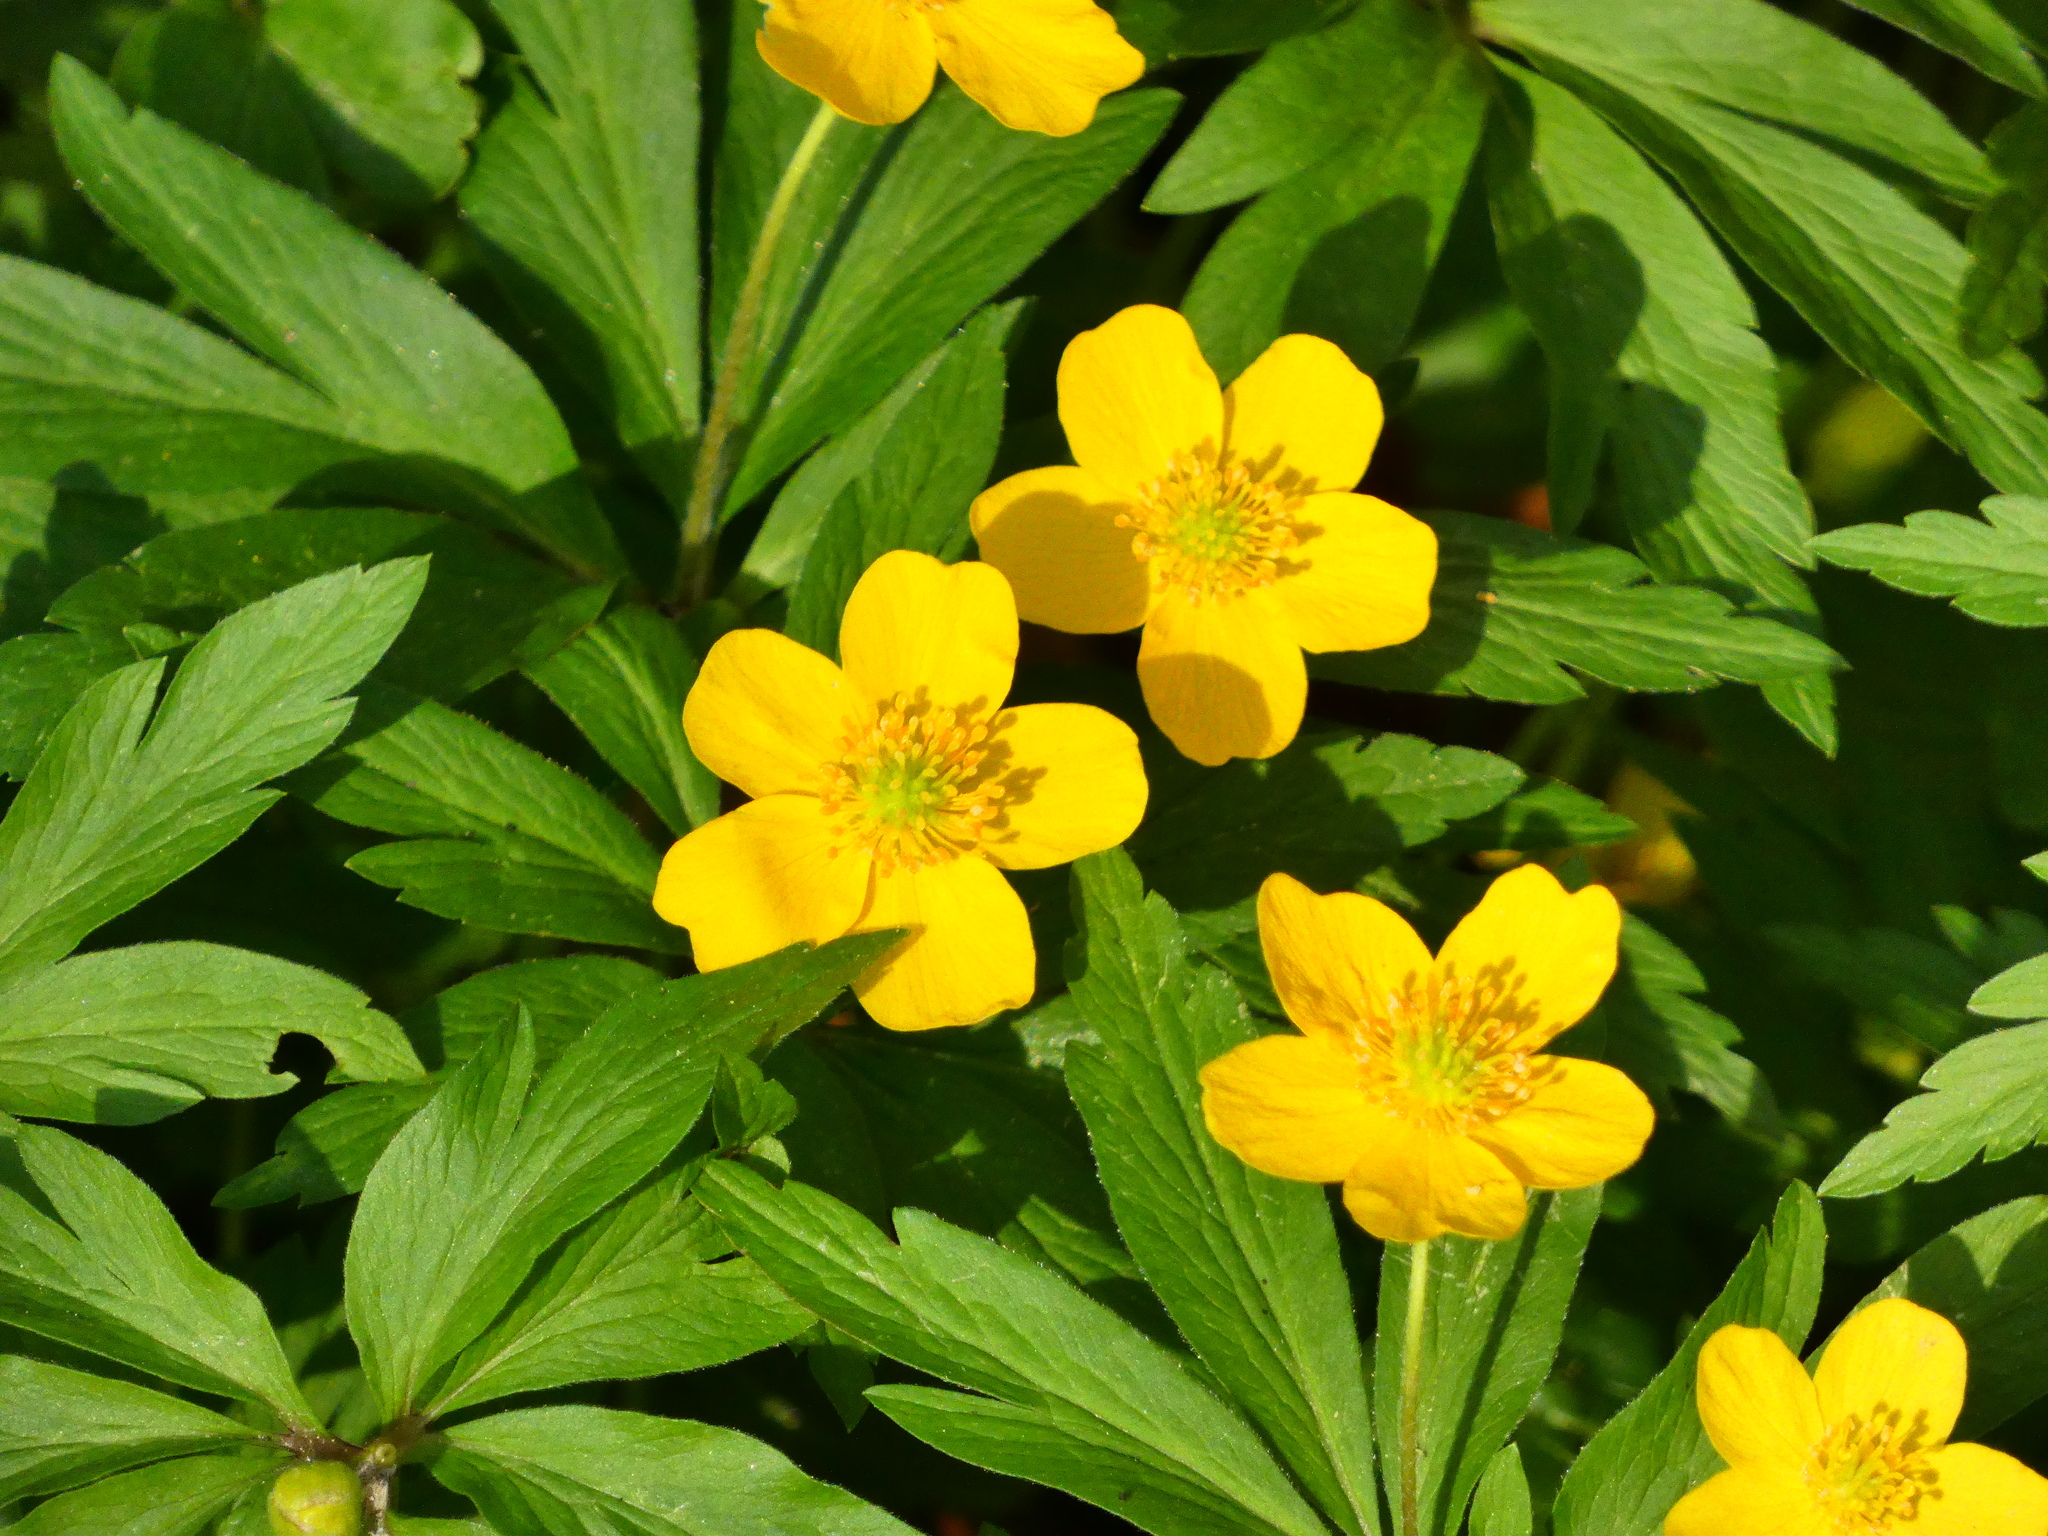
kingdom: Plantae
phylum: Tracheophyta
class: Magnoliopsida
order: Ranunculales
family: Ranunculaceae
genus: Anemone
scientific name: Anemone ranunculoides
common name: Yellow anemone
